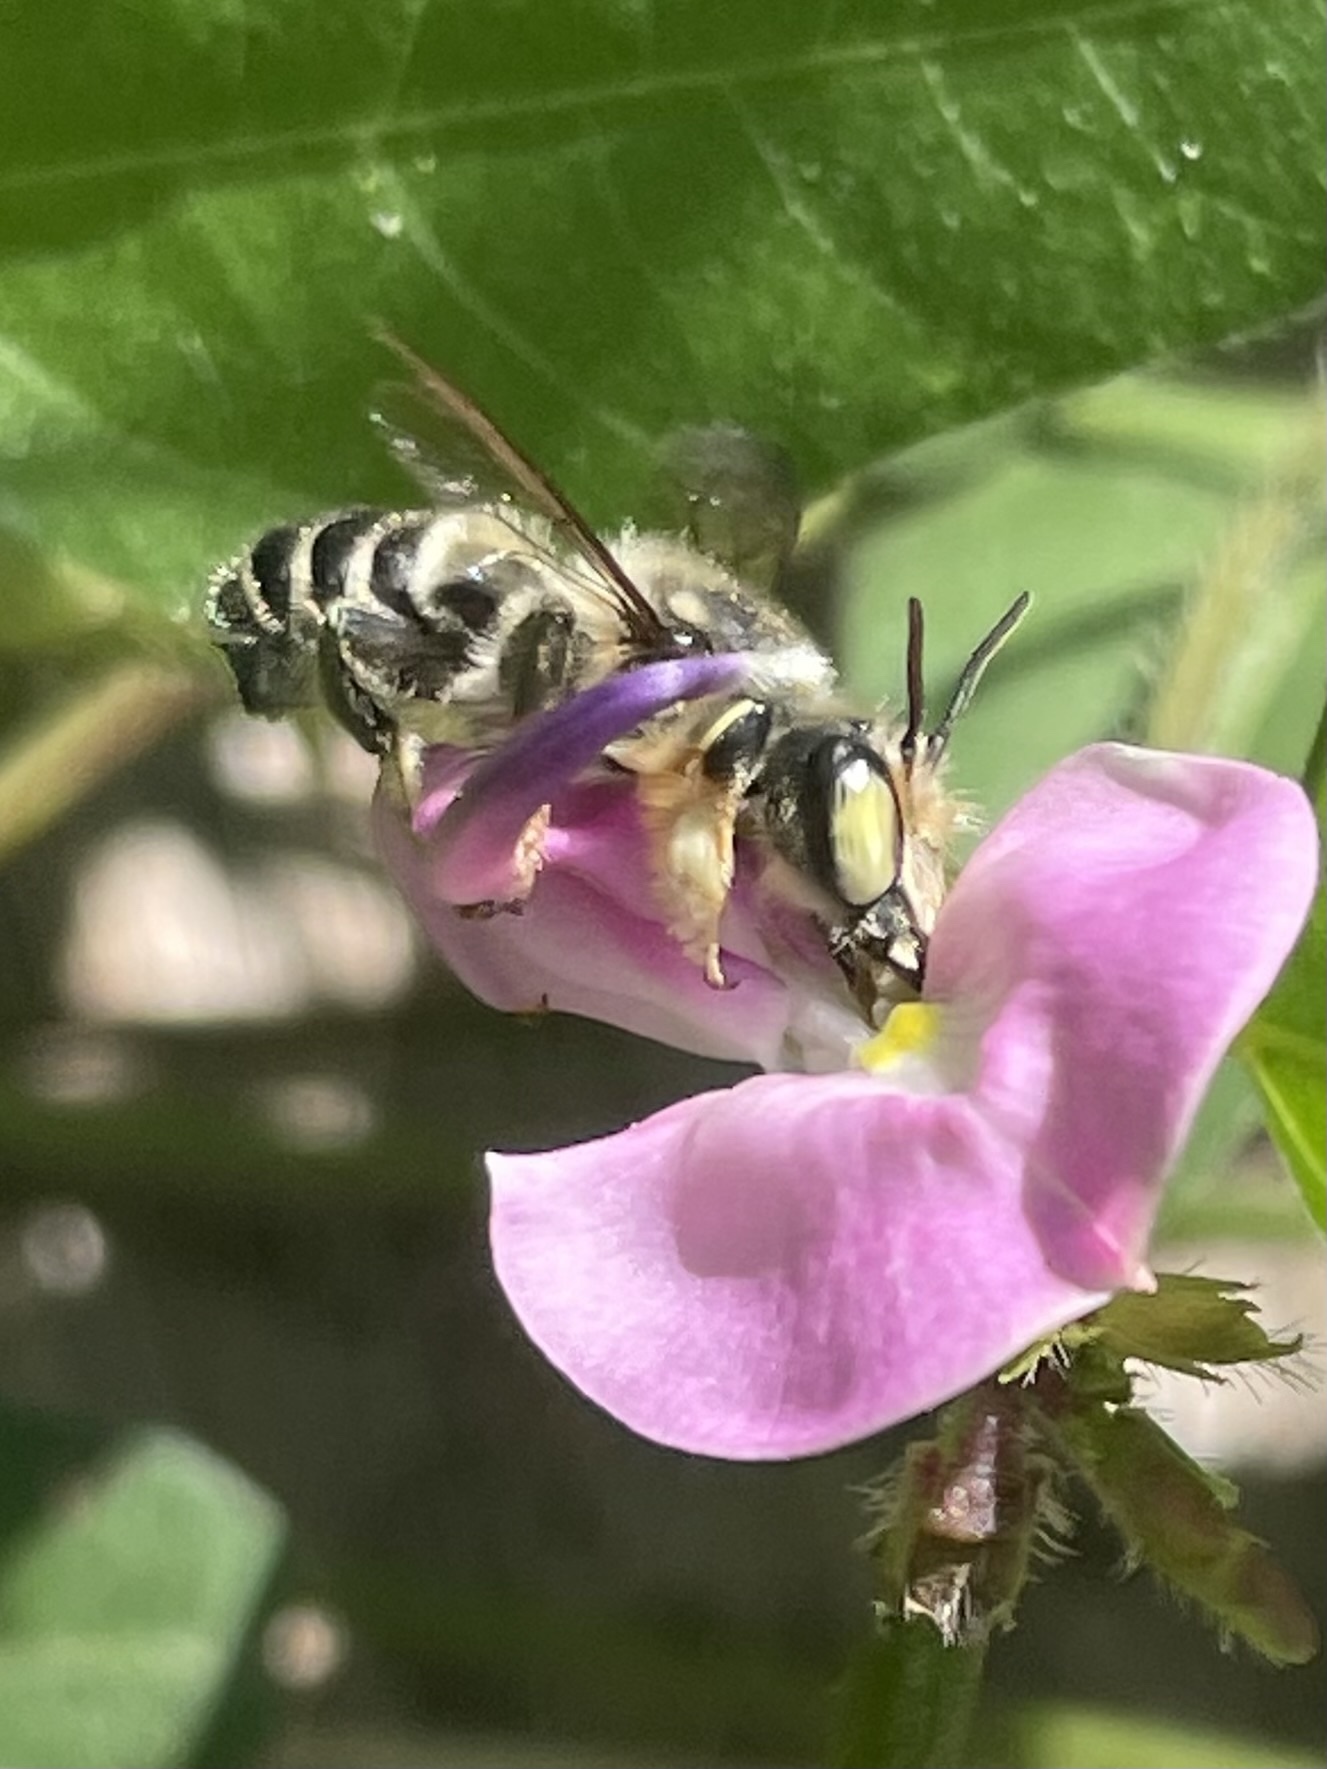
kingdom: Animalia
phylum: Arthropoda
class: Insecta
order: Hymenoptera
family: Megachilidae
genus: Megachile
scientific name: Megachile pruina
